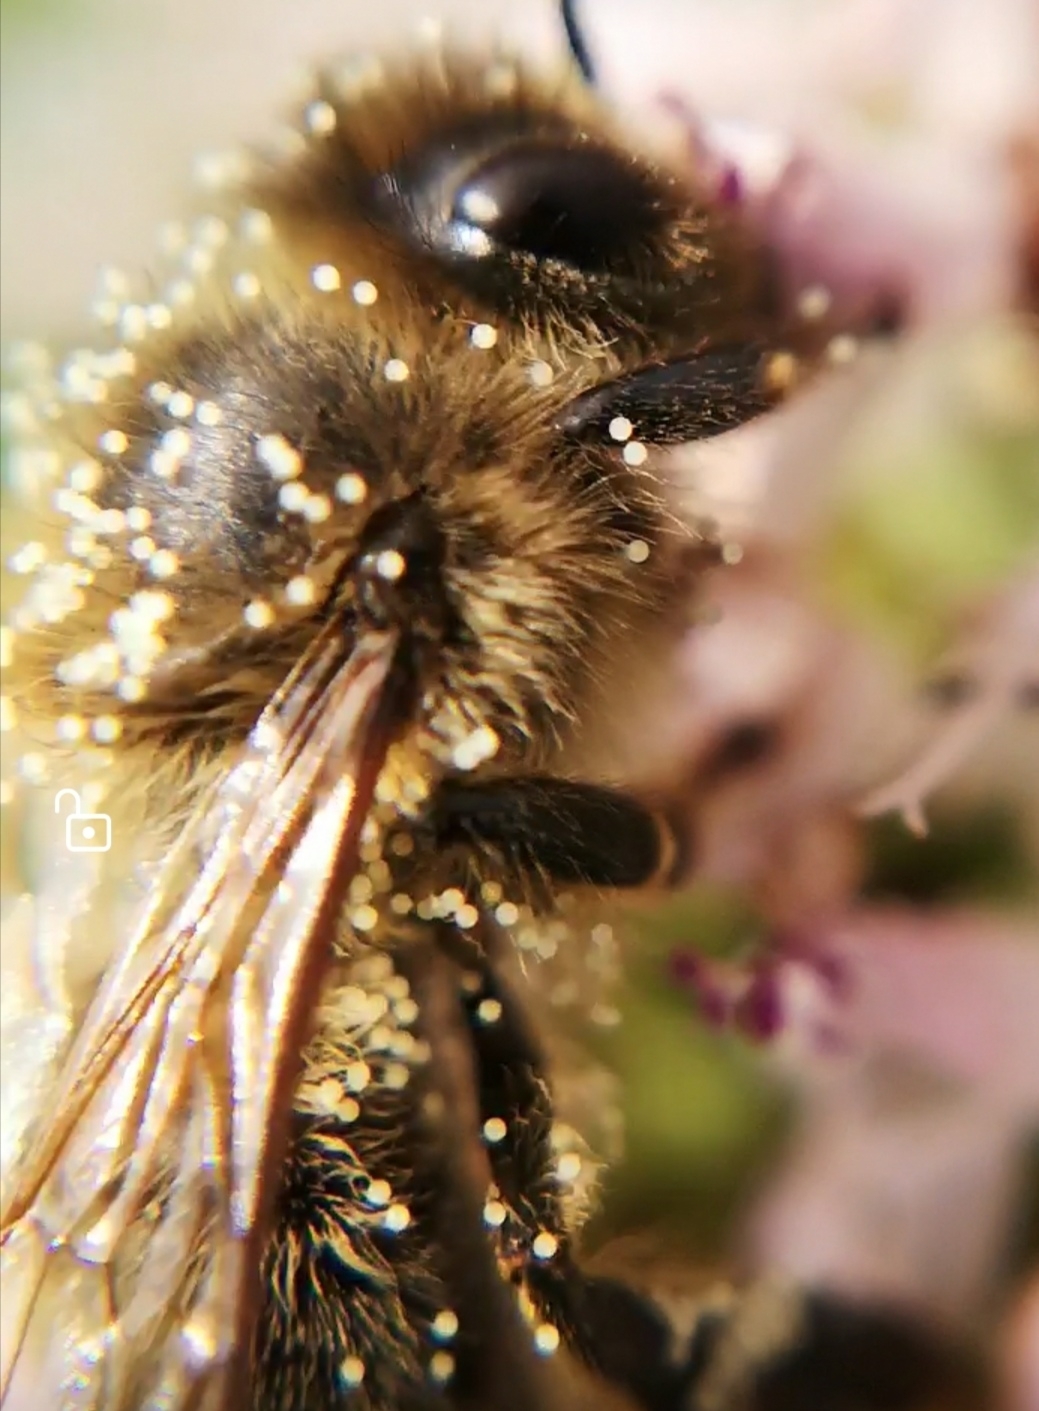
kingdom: Animalia
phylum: Arthropoda
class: Insecta
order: Hymenoptera
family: Apidae
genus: Apis
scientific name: Apis mellifera
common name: Honey bee
